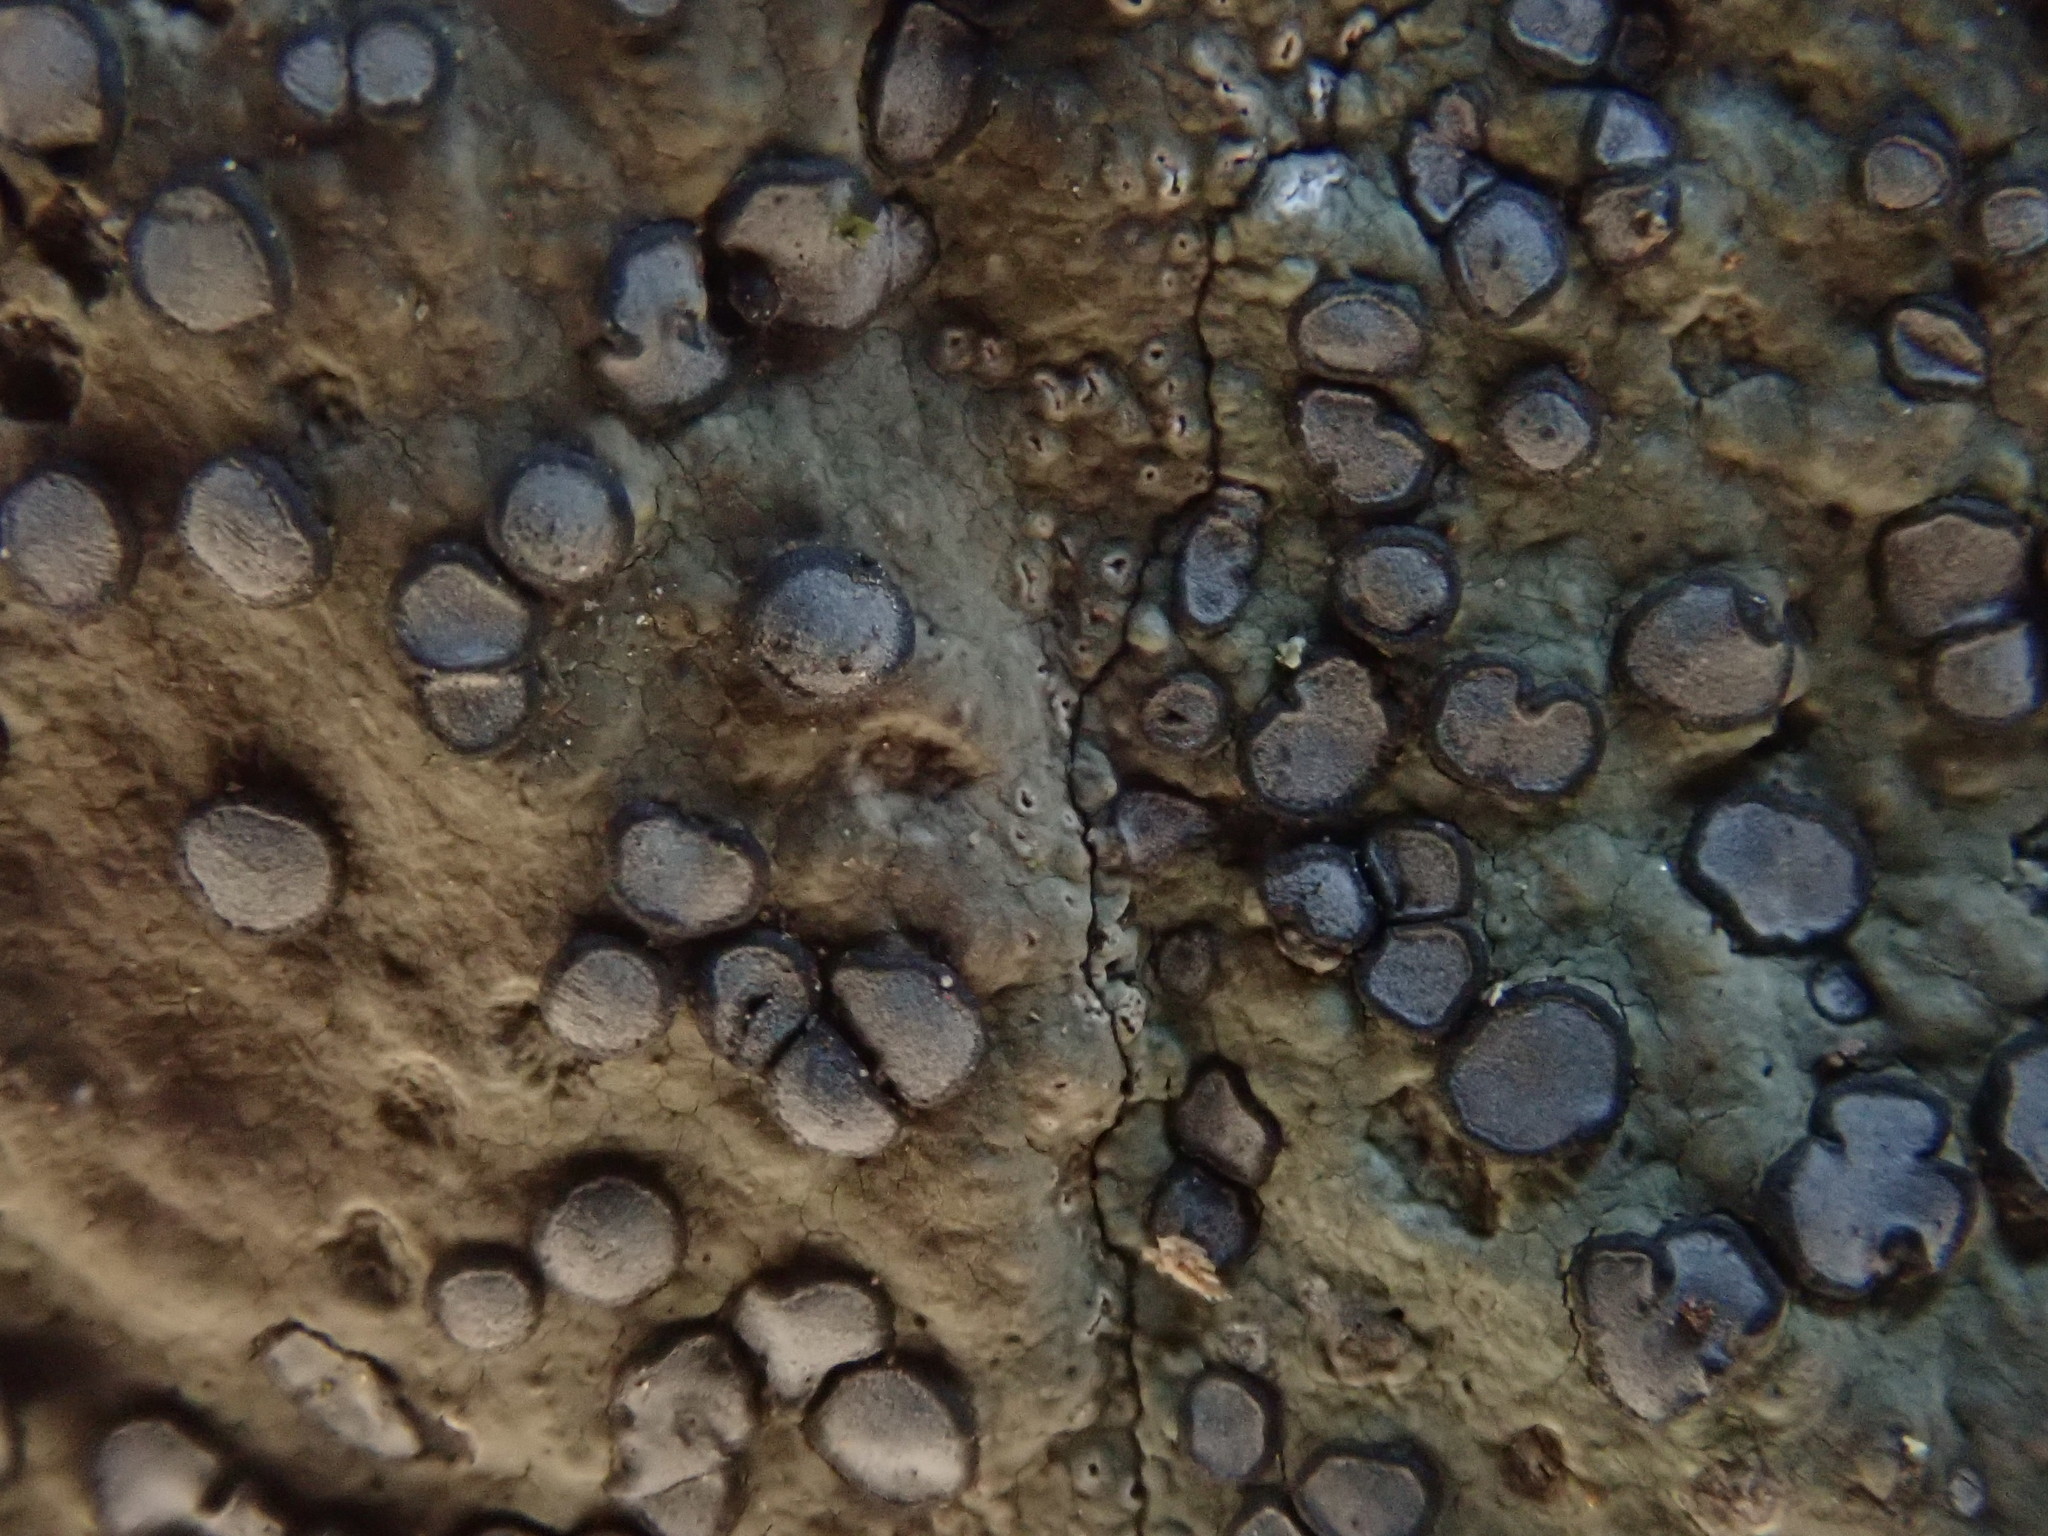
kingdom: Fungi
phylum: Ascomycota
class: Lecanoromycetes
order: Lecideales
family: Lecideaceae
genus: Porpidia
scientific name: Porpidia albocaerulescens
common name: Smokey-eyed boulder lichen
